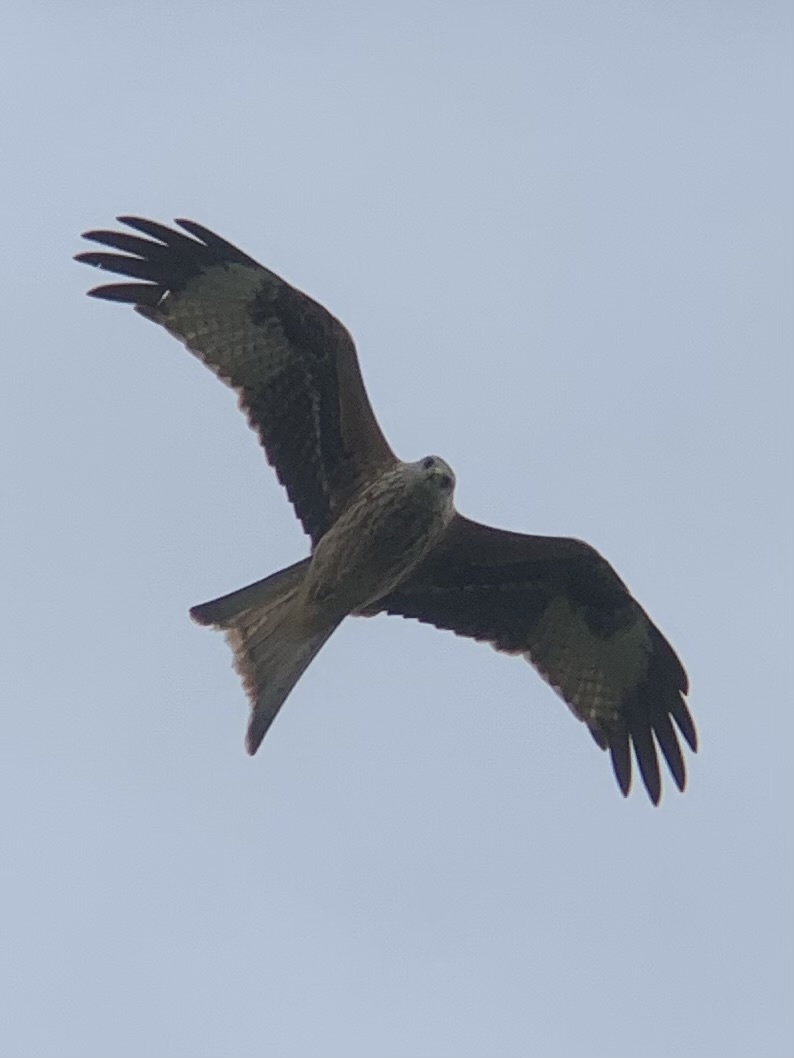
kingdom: Animalia
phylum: Chordata
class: Aves
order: Accipitriformes
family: Accipitridae
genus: Milvus
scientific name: Milvus milvus
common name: Red kite
